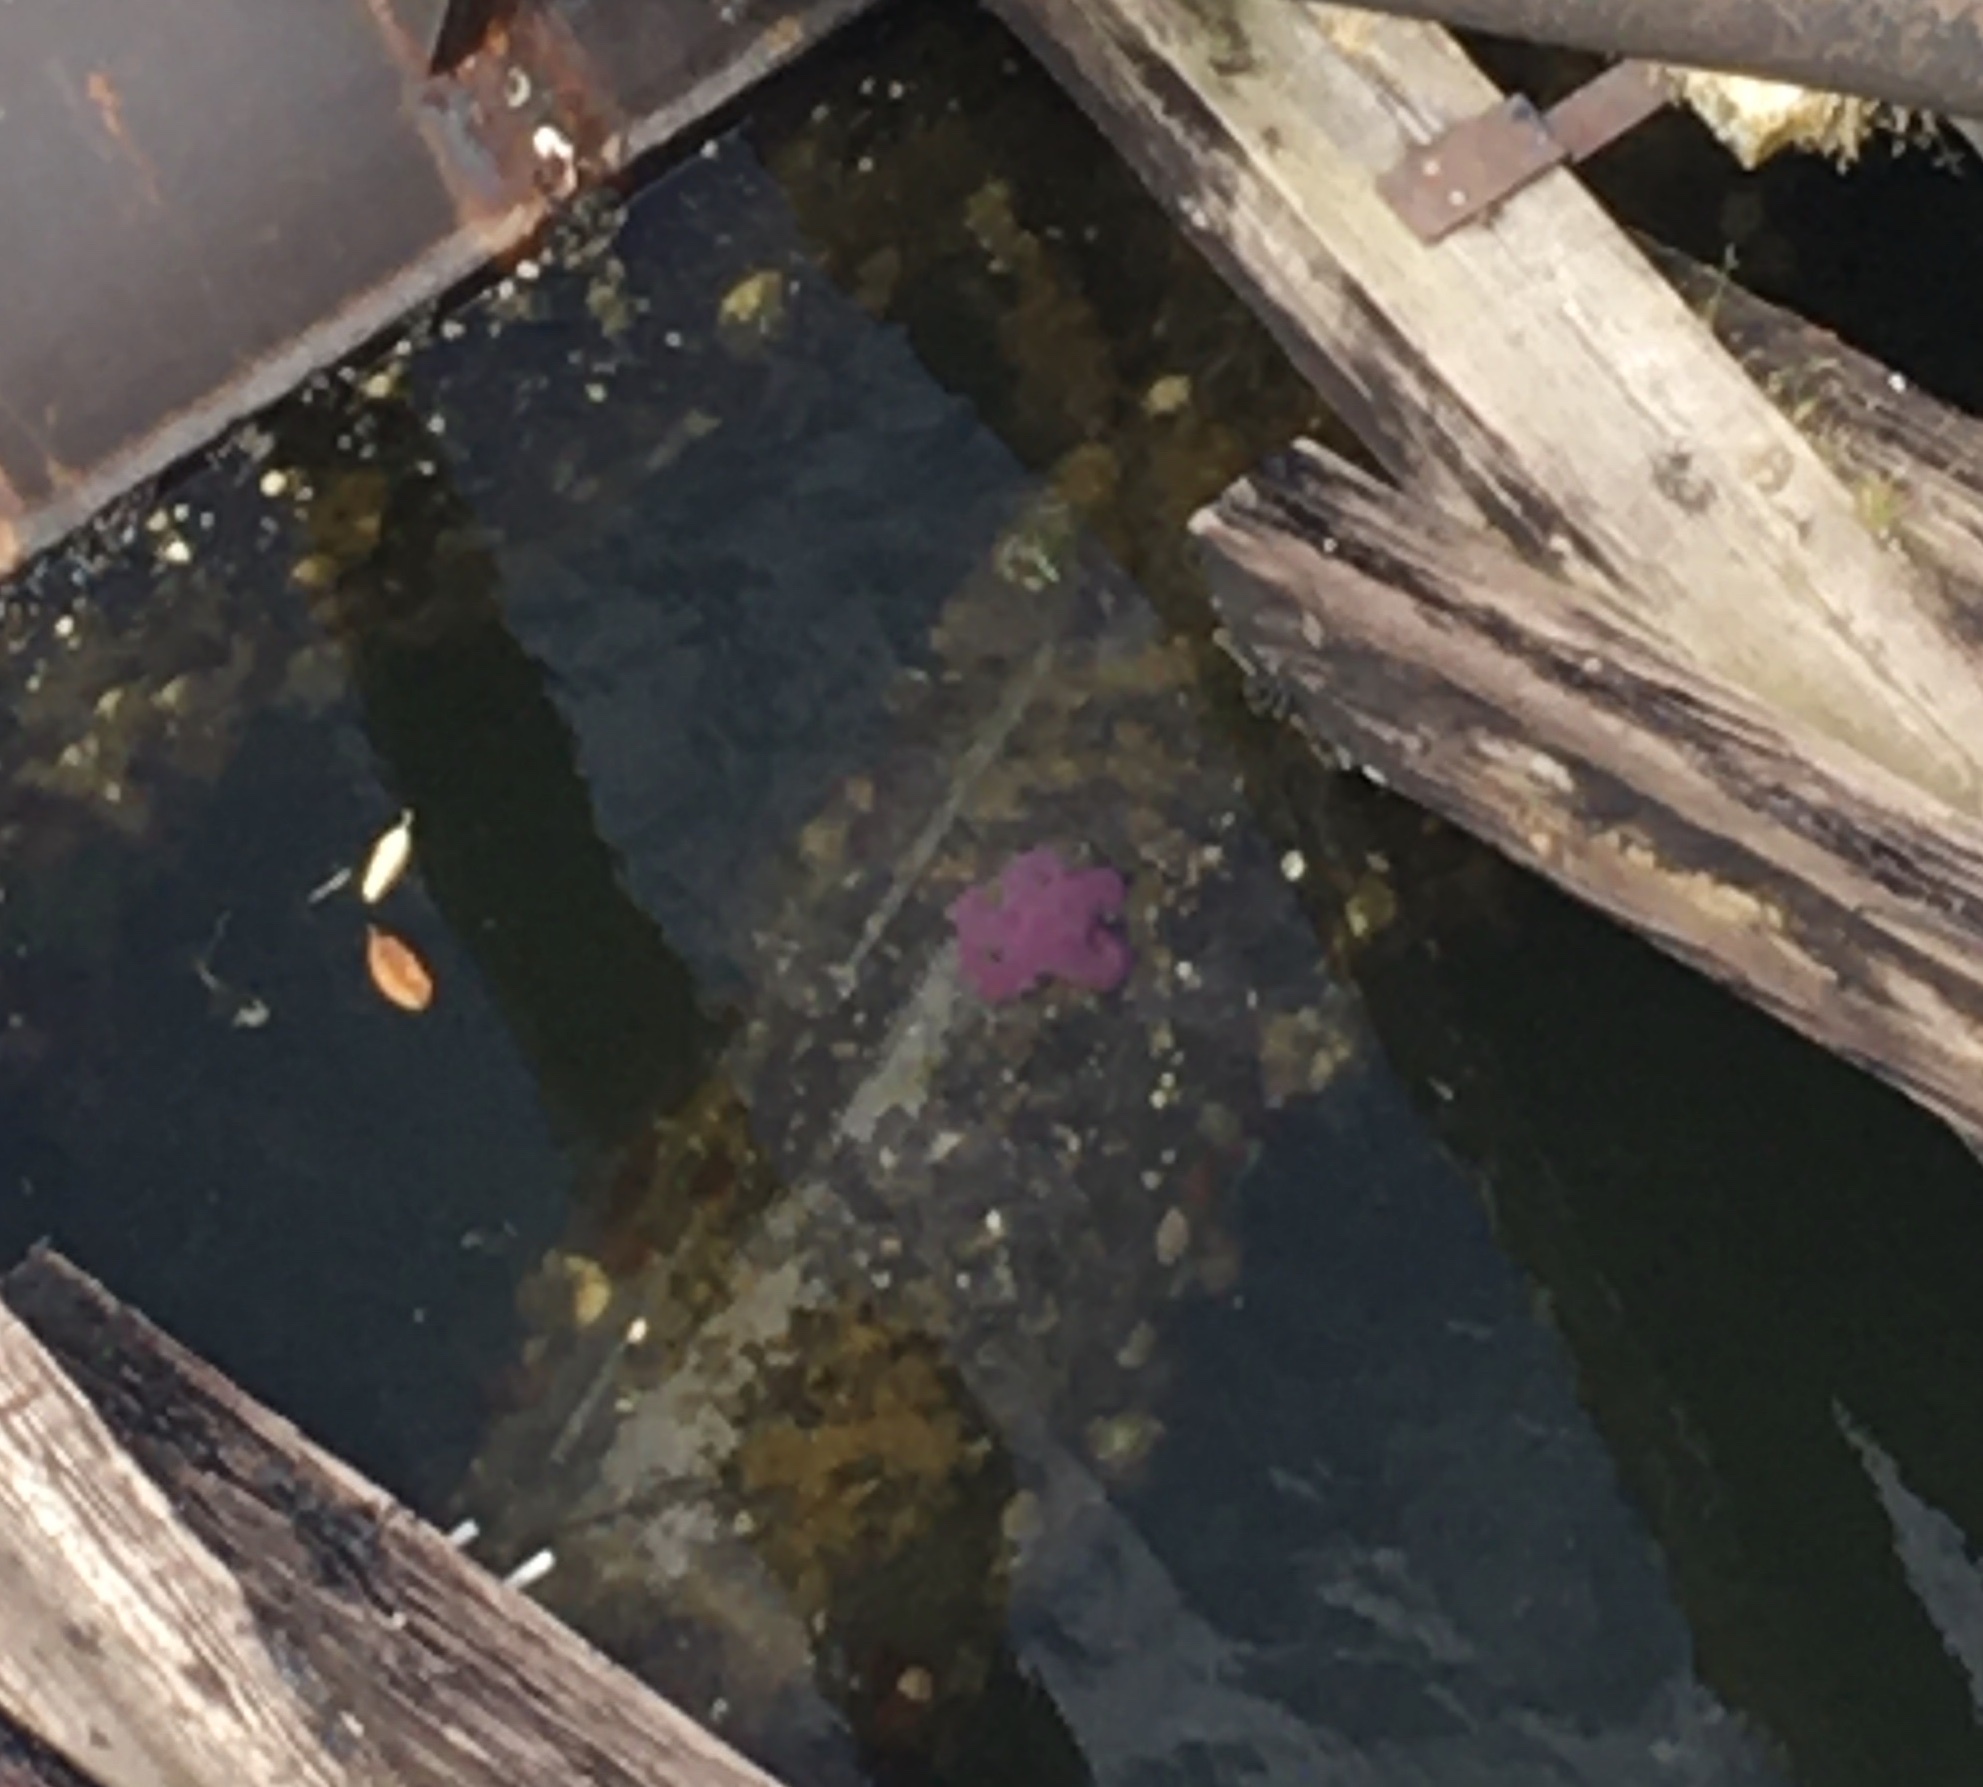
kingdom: Animalia
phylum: Echinodermata
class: Asteroidea
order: Forcipulatida
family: Asteriidae
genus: Pisaster
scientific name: Pisaster ochraceus
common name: Ochre stars
